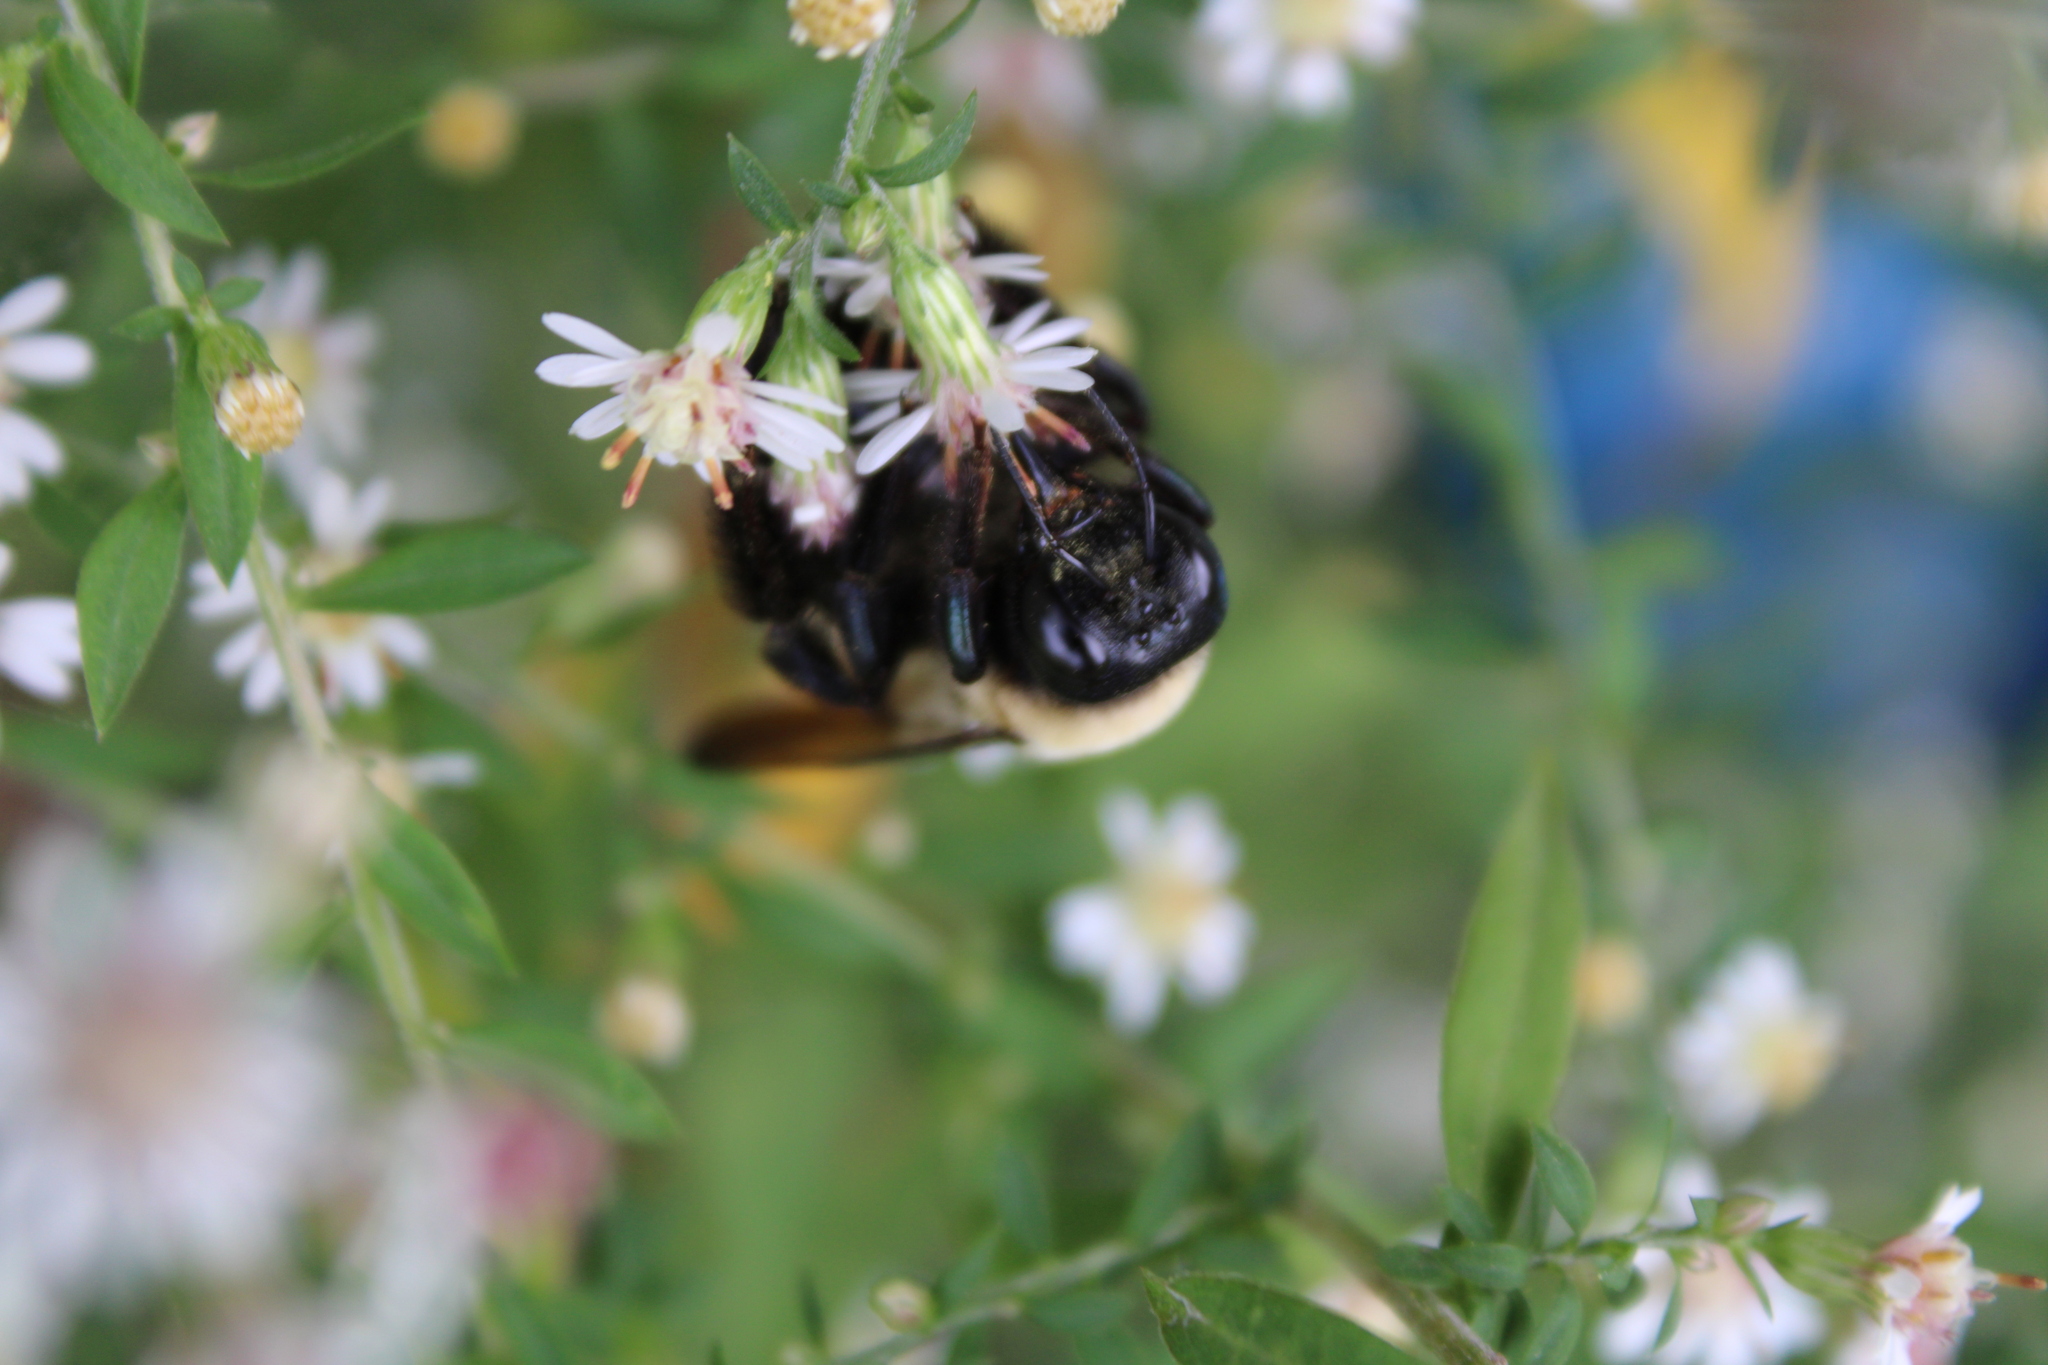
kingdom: Animalia
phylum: Arthropoda
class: Insecta
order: Hymenoptera
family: Apidae
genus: Xylocopa
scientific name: Xylocopa virginica
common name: Carpenter bee
